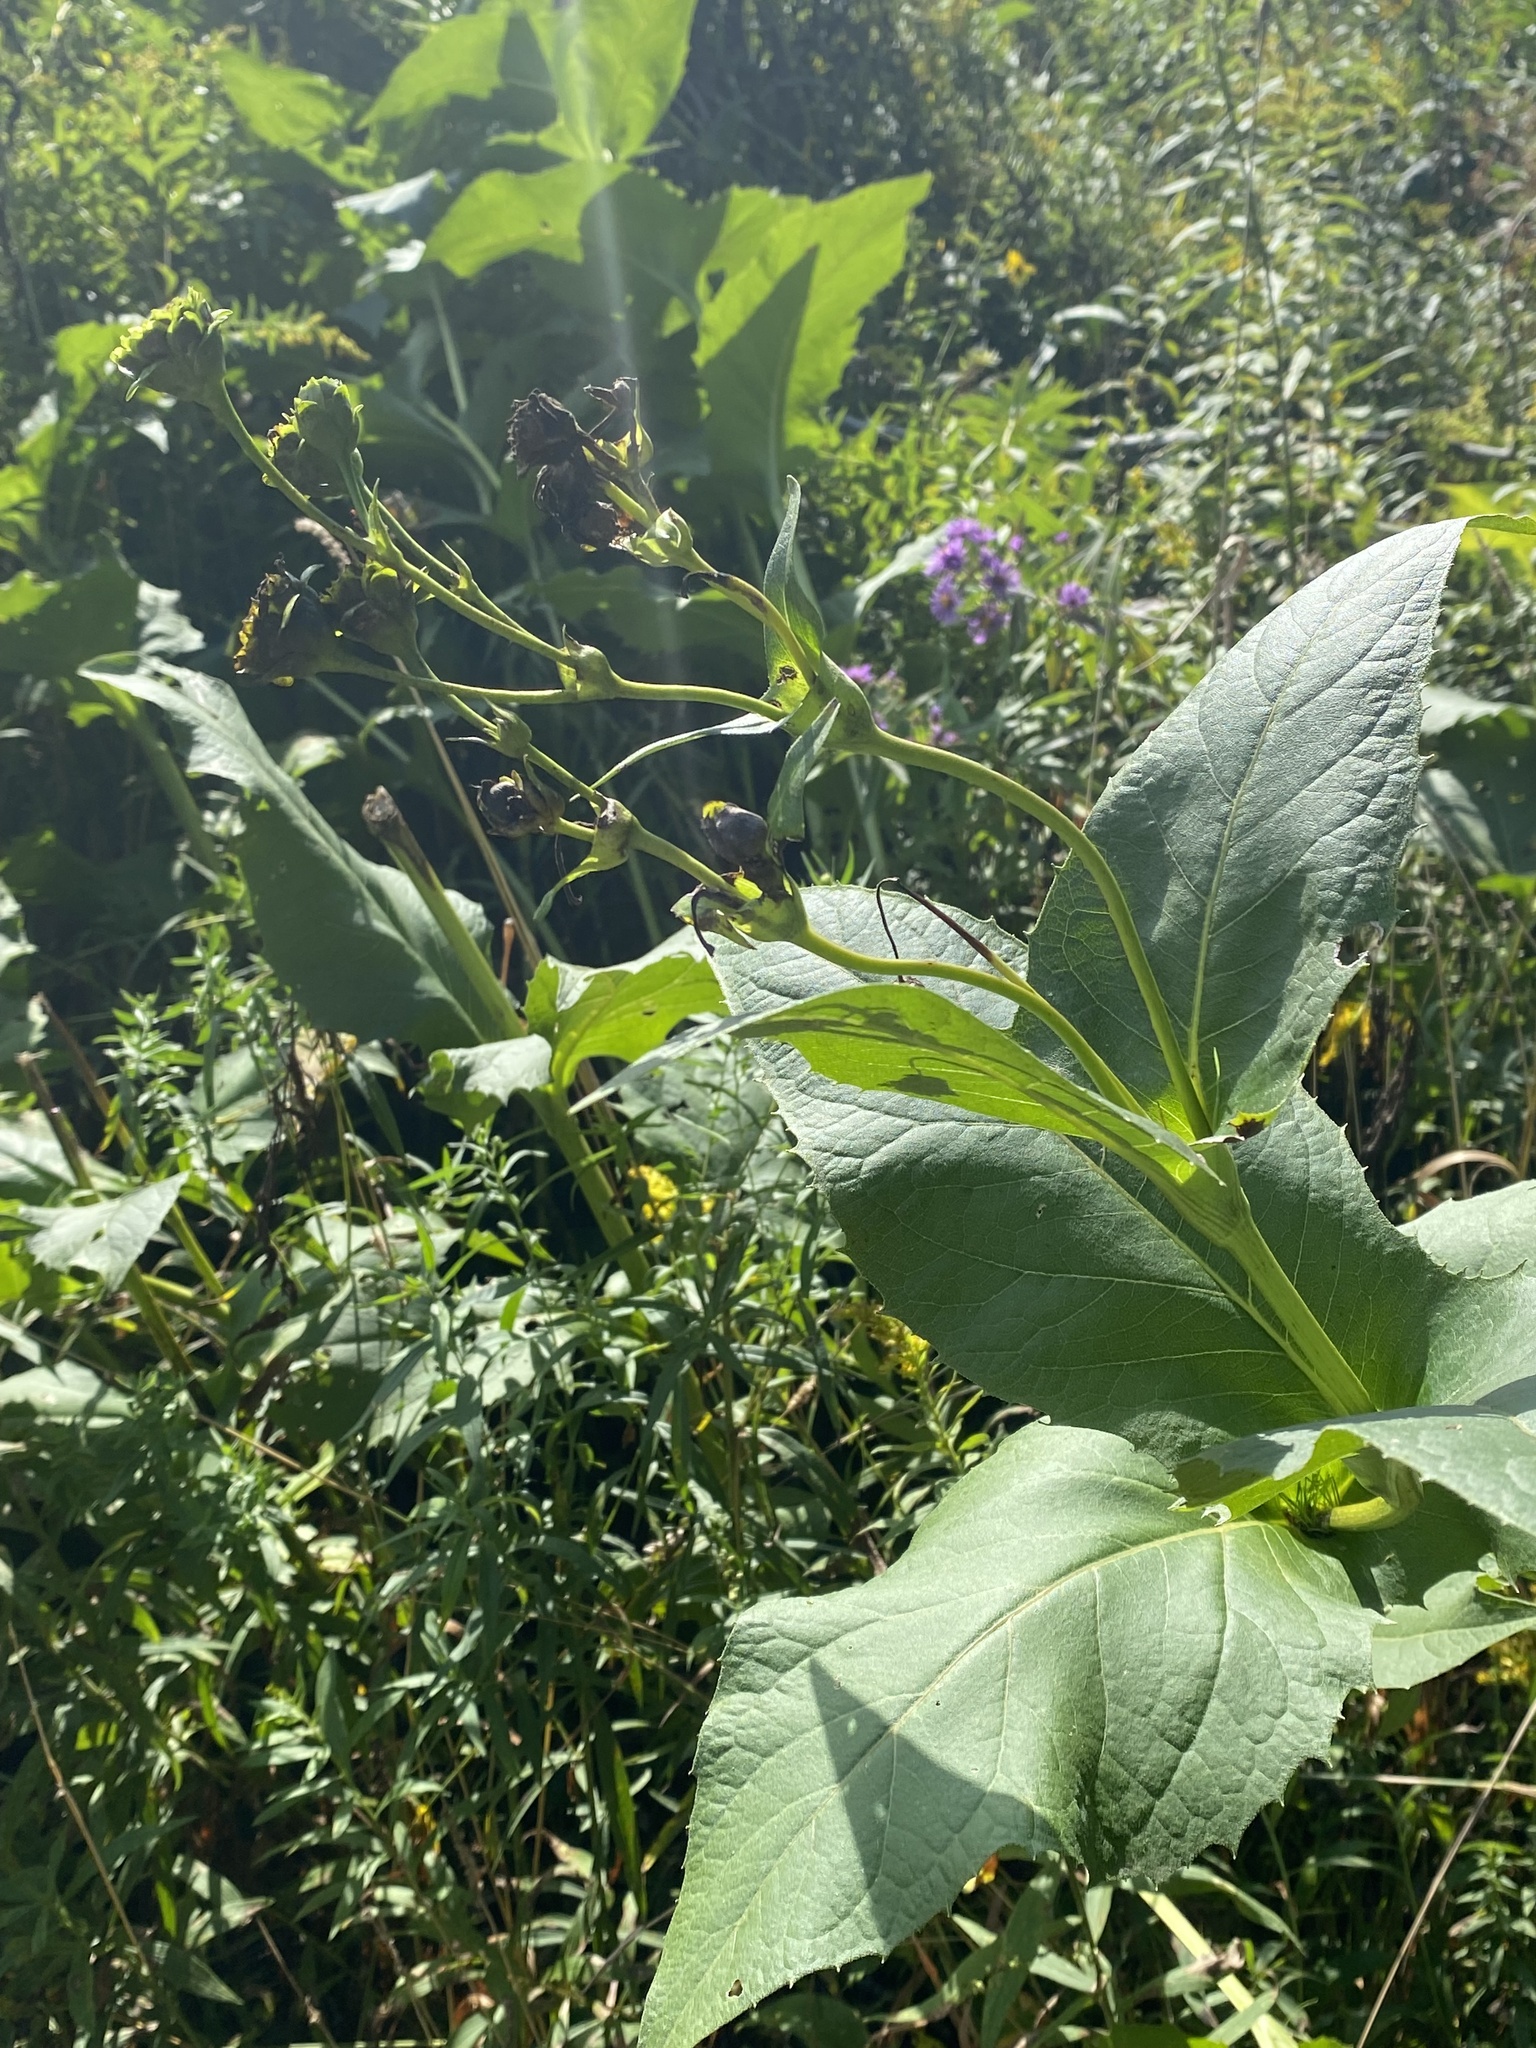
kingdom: Plantae
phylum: Tracheophyta
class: Magnoliopsida
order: Asterales
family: Asteraceae
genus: Silphium
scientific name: Silphium perfoliatum
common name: Cup-plant
